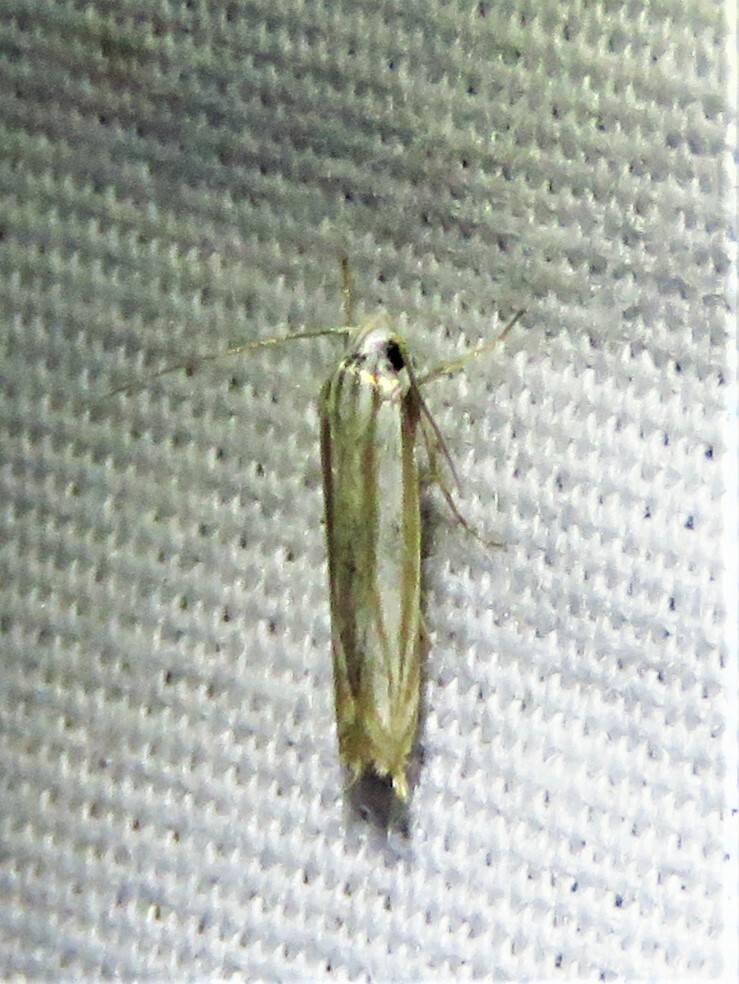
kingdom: Animalia
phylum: Arthropoda
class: Insecta
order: Lepidoptera
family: Gelechiidae
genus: Polyhymno
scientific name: Polyhymno luteostrigella
